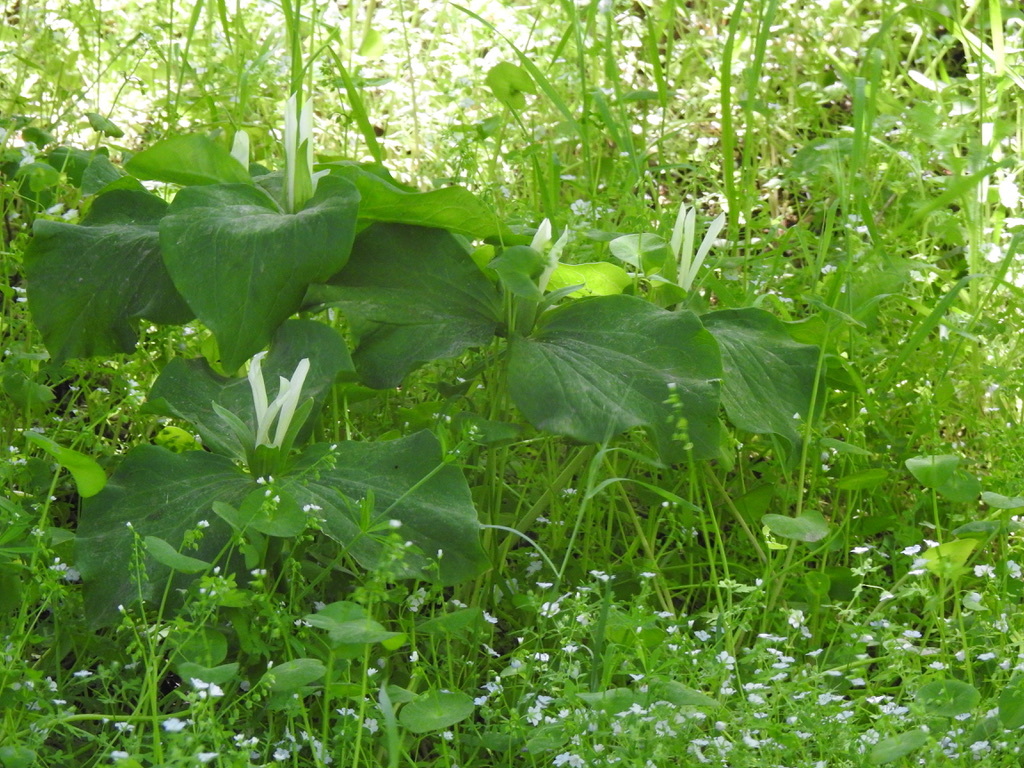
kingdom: Plantae
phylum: Tracheophyta
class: Liliopsida
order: Liliales
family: Melanthiaceae
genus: Trillium
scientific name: Trillium albidum
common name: Freeman's trillium
